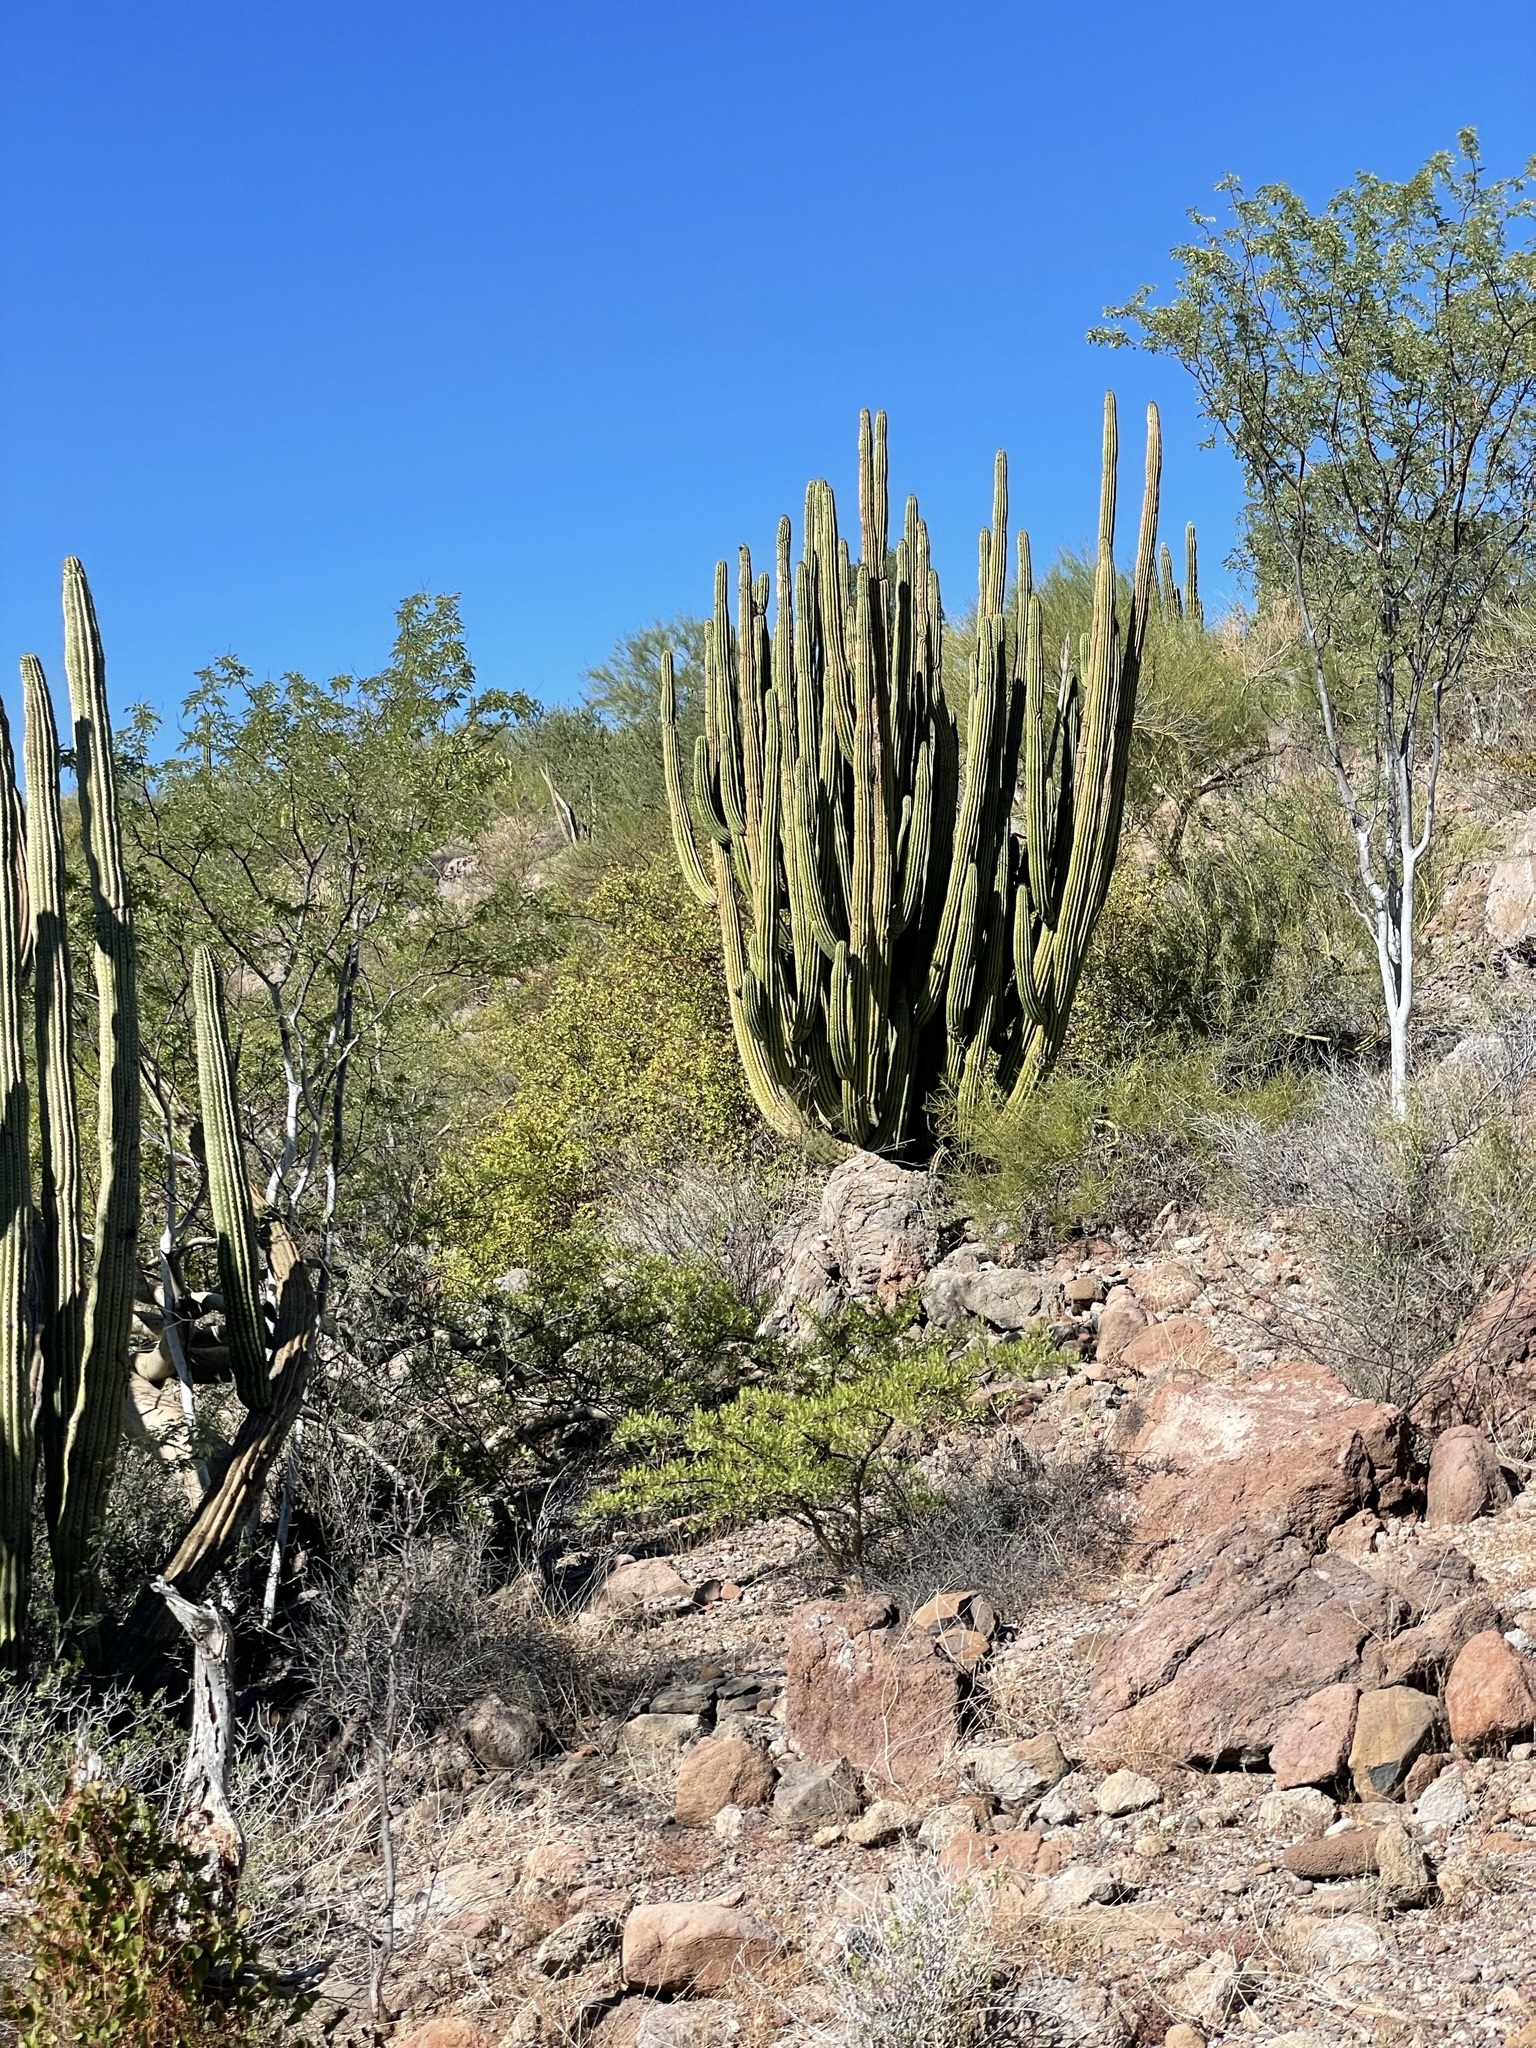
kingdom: Plantae
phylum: Tracheophyta
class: Magnoliopsida
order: Caryophyllales
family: Cactaceae
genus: Stenocereus
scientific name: Stenocereus thurberi
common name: Organ pipe cactus
